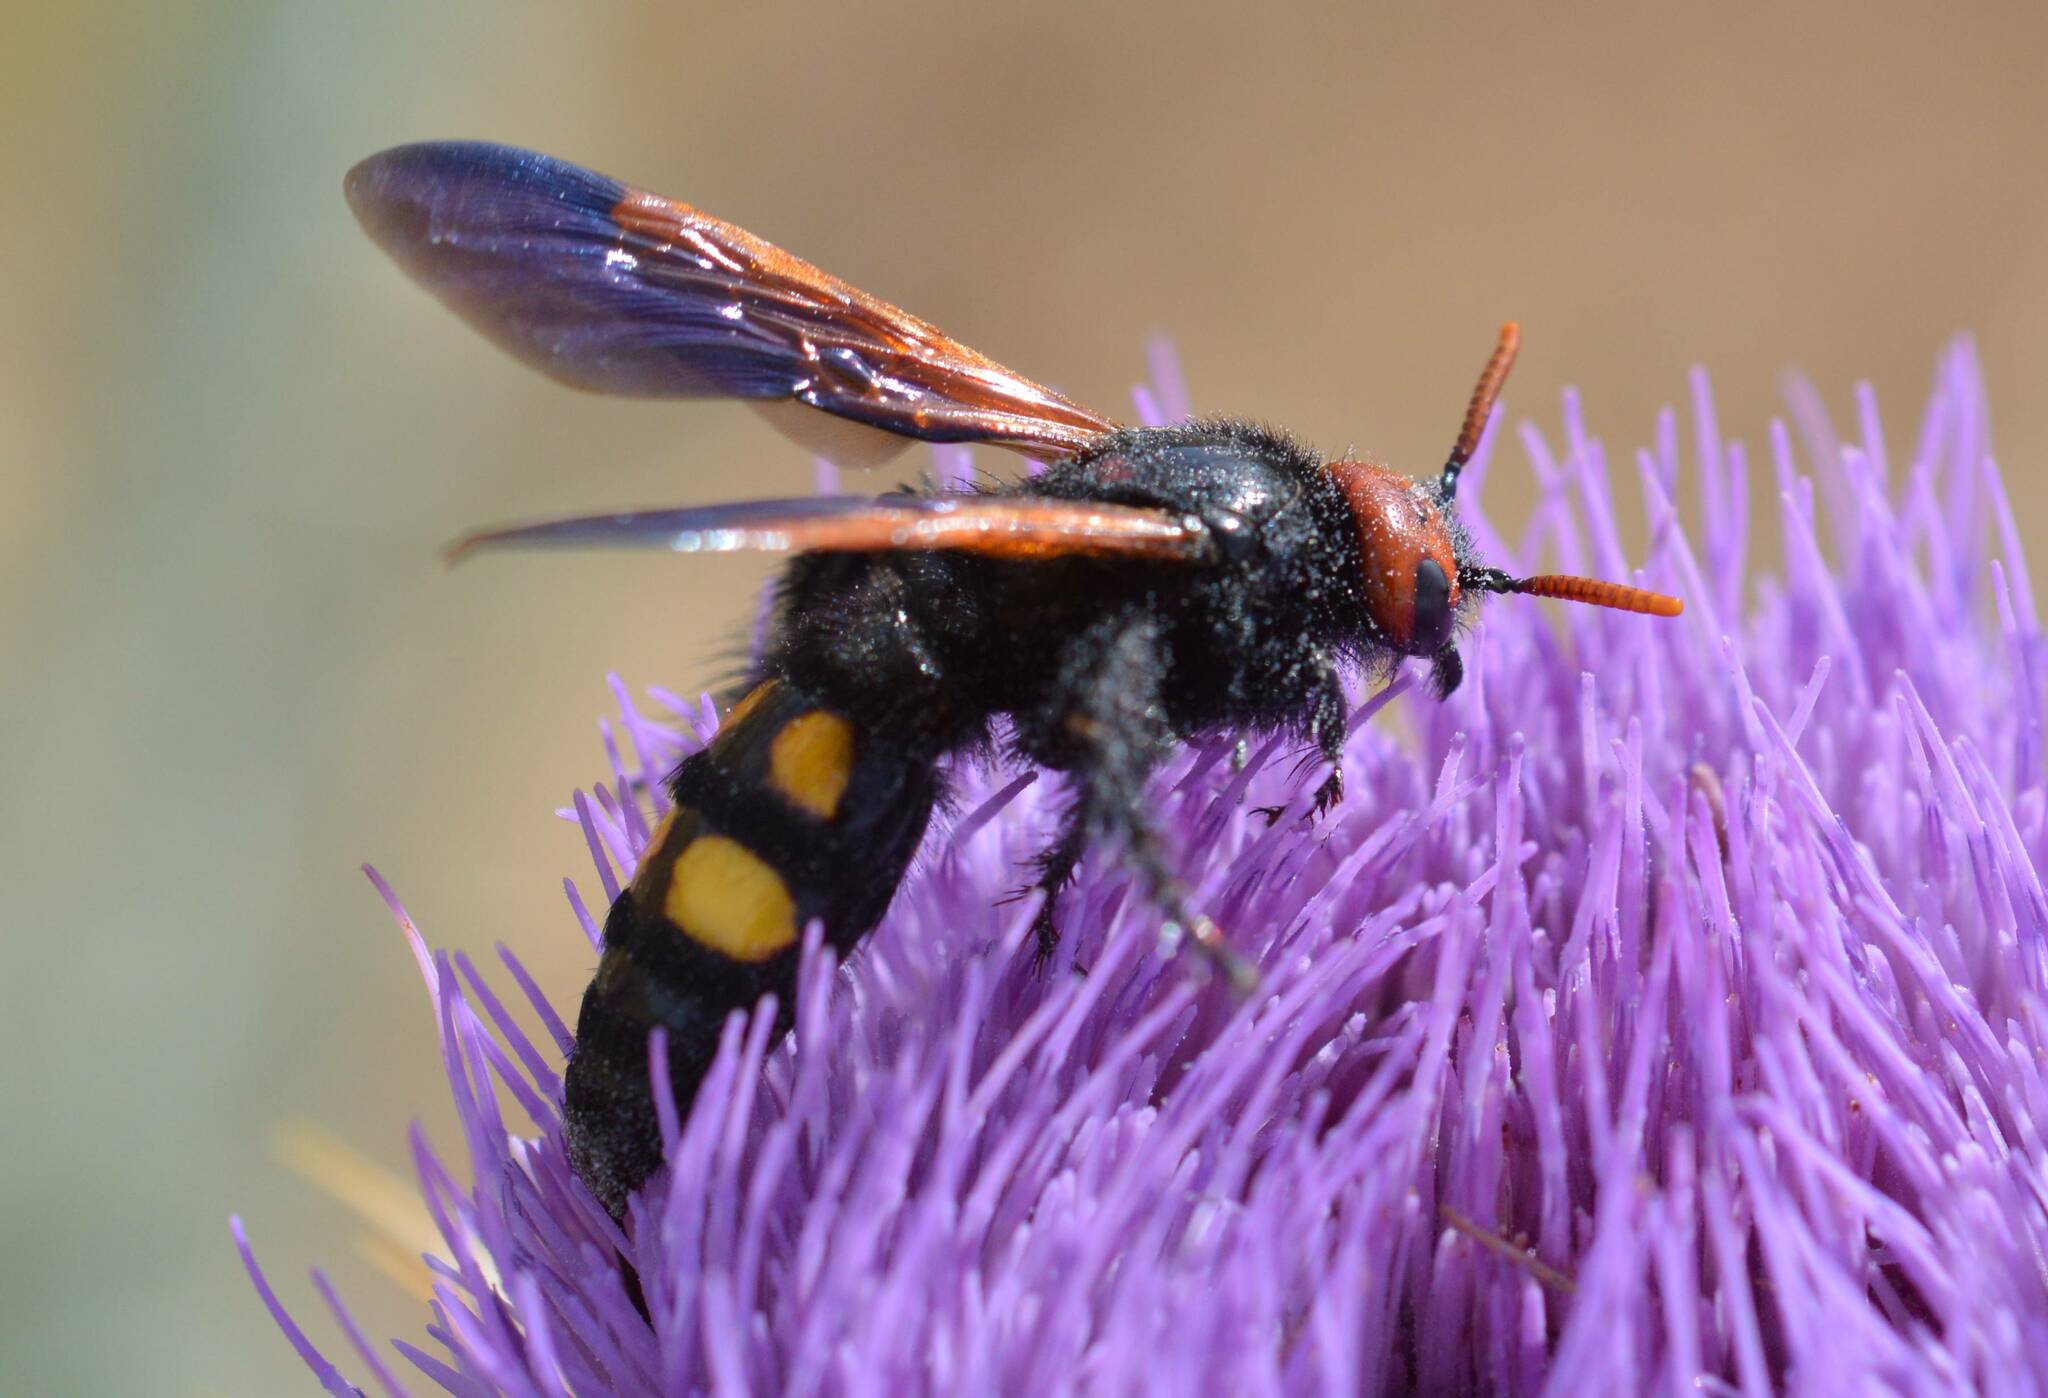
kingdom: Animalia
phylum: Arthropoda
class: Insecta
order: Hymenoptera
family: Scoliidae
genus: Megascolia
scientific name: Megascolia bidens
